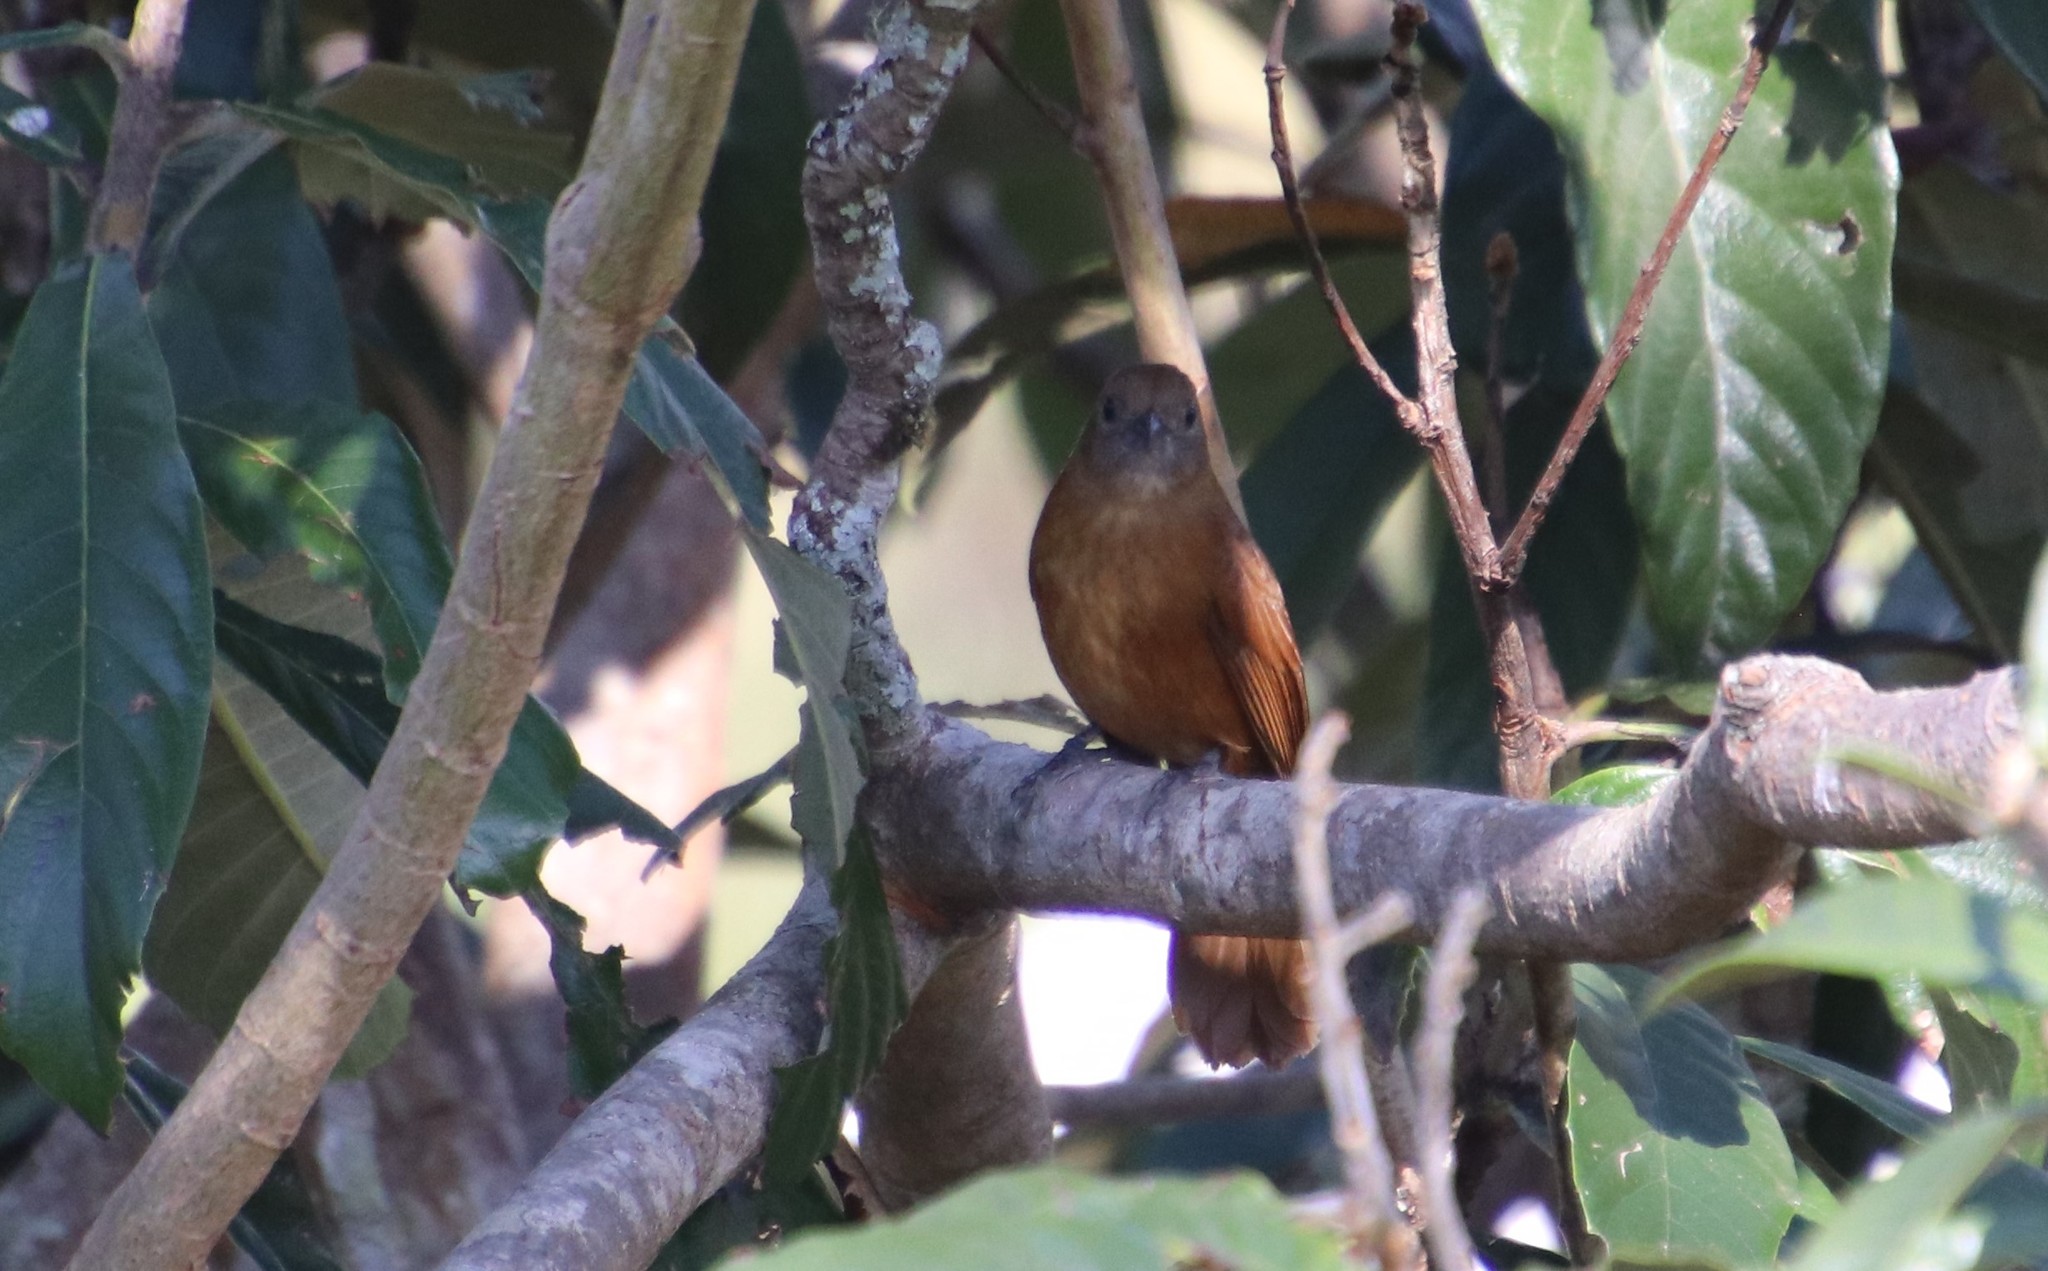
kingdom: Animalia
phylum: Chordata
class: Aves
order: Passeriformes
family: Thraupidae
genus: Tachyphonus
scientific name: Tachyphonus coronatus
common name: Ruby-crowned tanager
